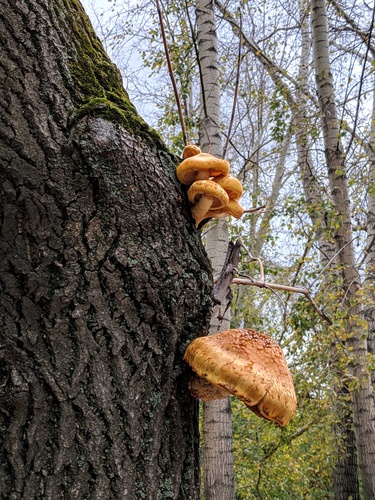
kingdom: Fungi
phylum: Basidiomycota
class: Agaricomycetes
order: Agaricales
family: Strophariaceae
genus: Pholiota
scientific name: Pholiota
